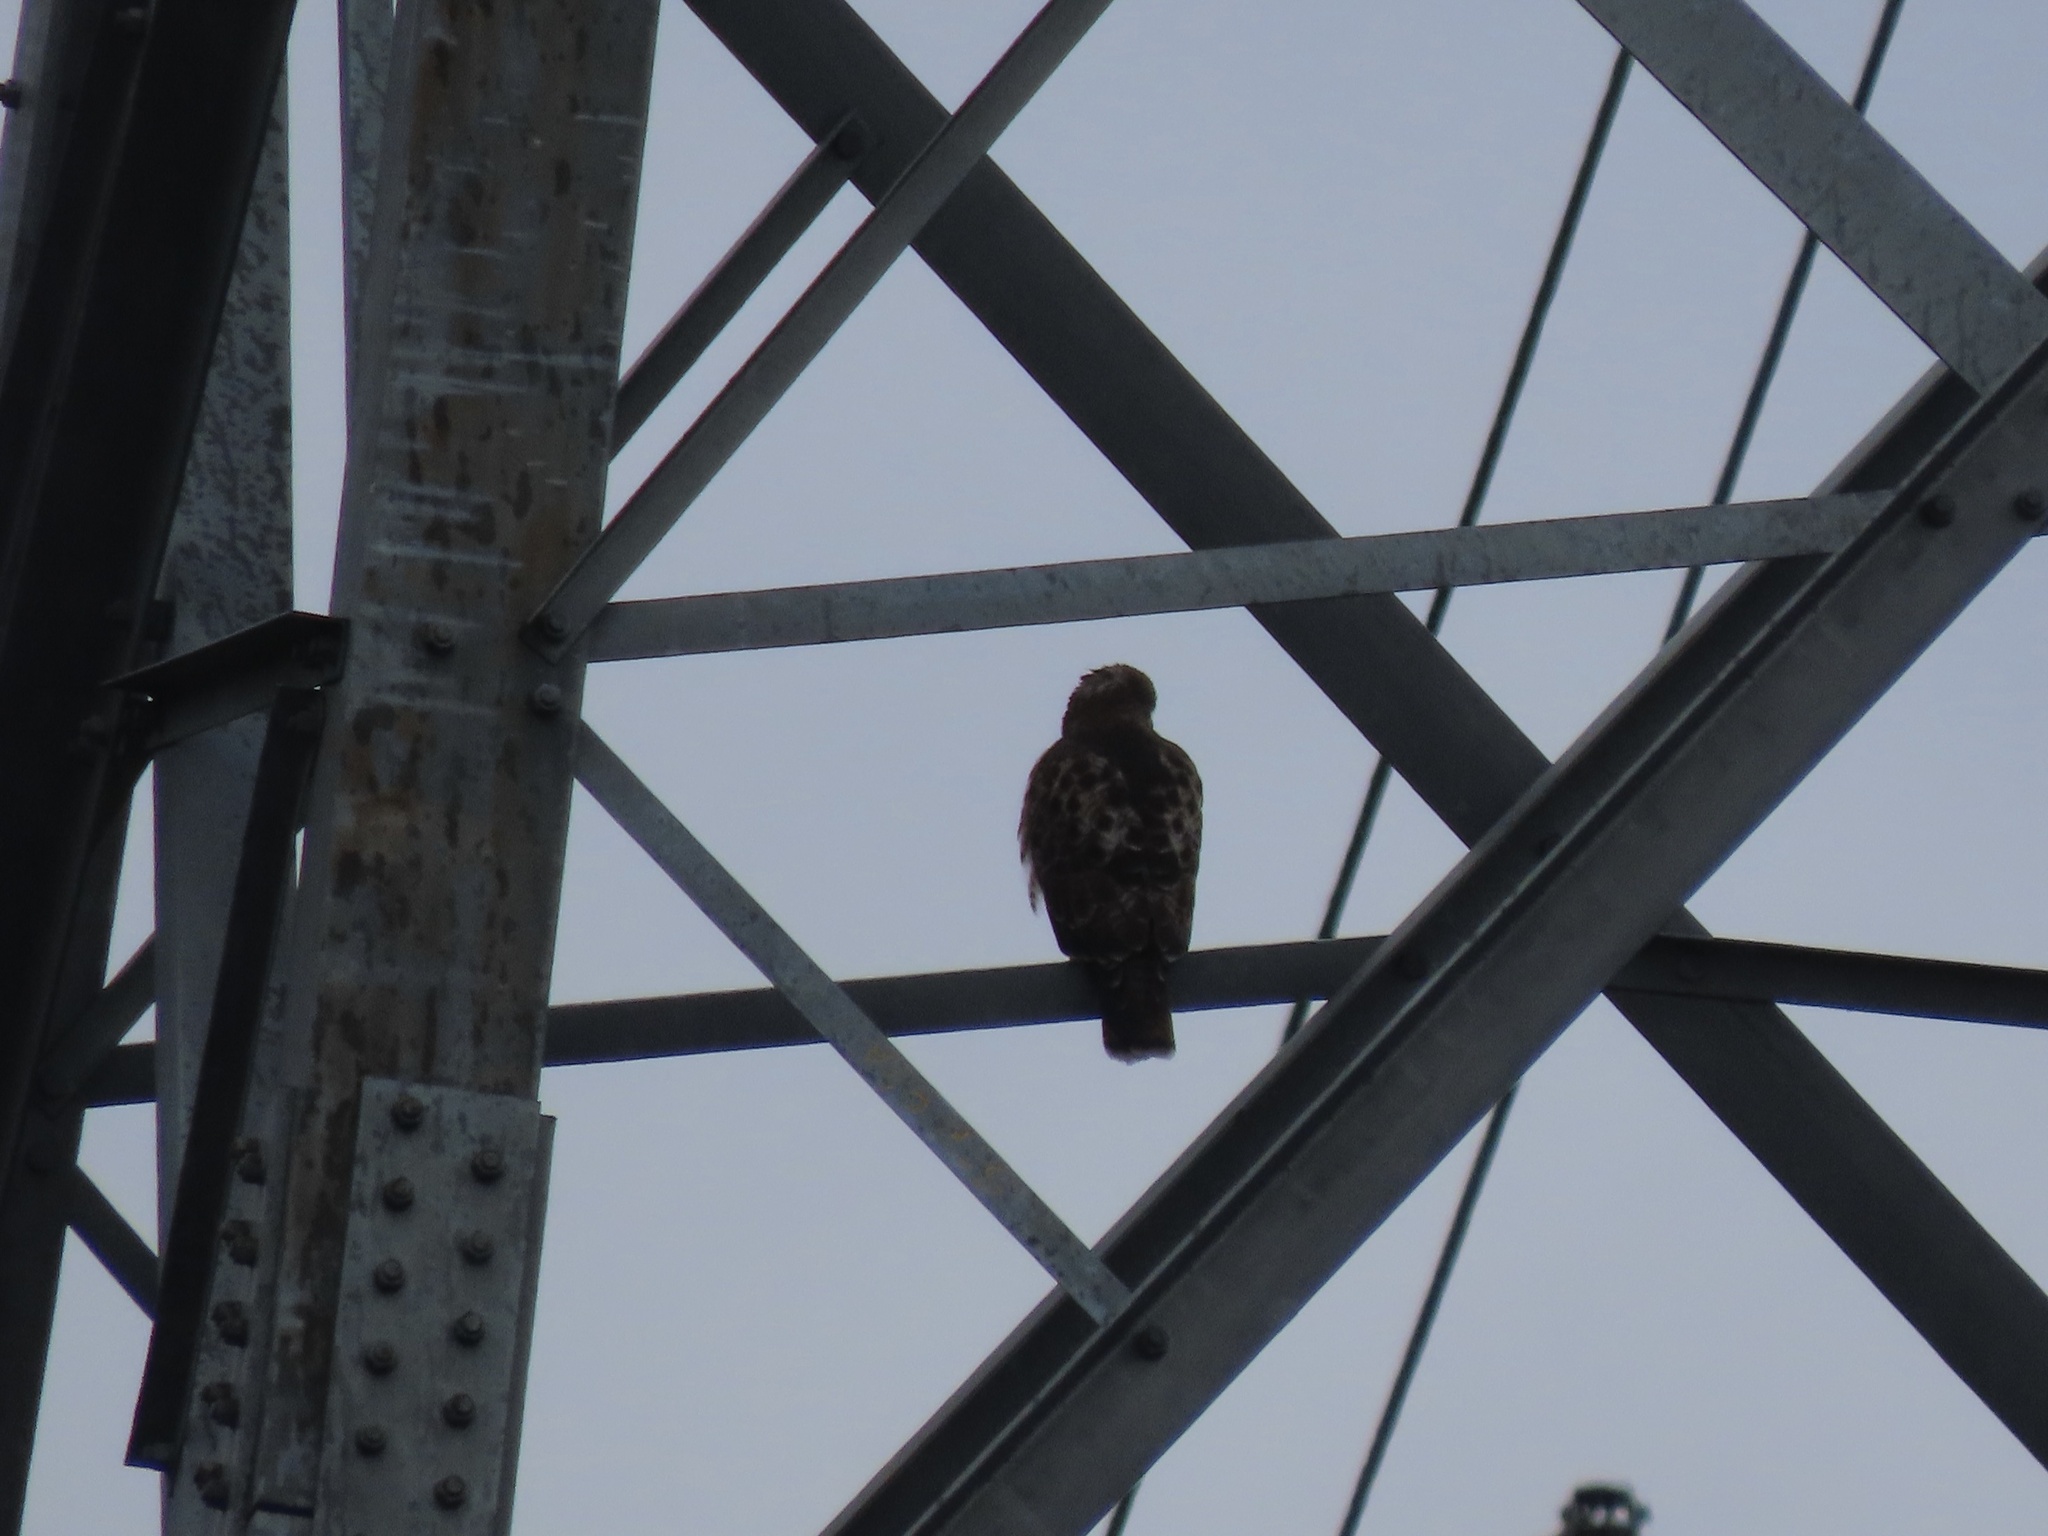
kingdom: Animalia
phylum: Chordata
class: Aves
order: Accipitriformes
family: Accipitridae
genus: Buteo
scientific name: Buteo jamaicensis
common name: Red-tailed hawk
